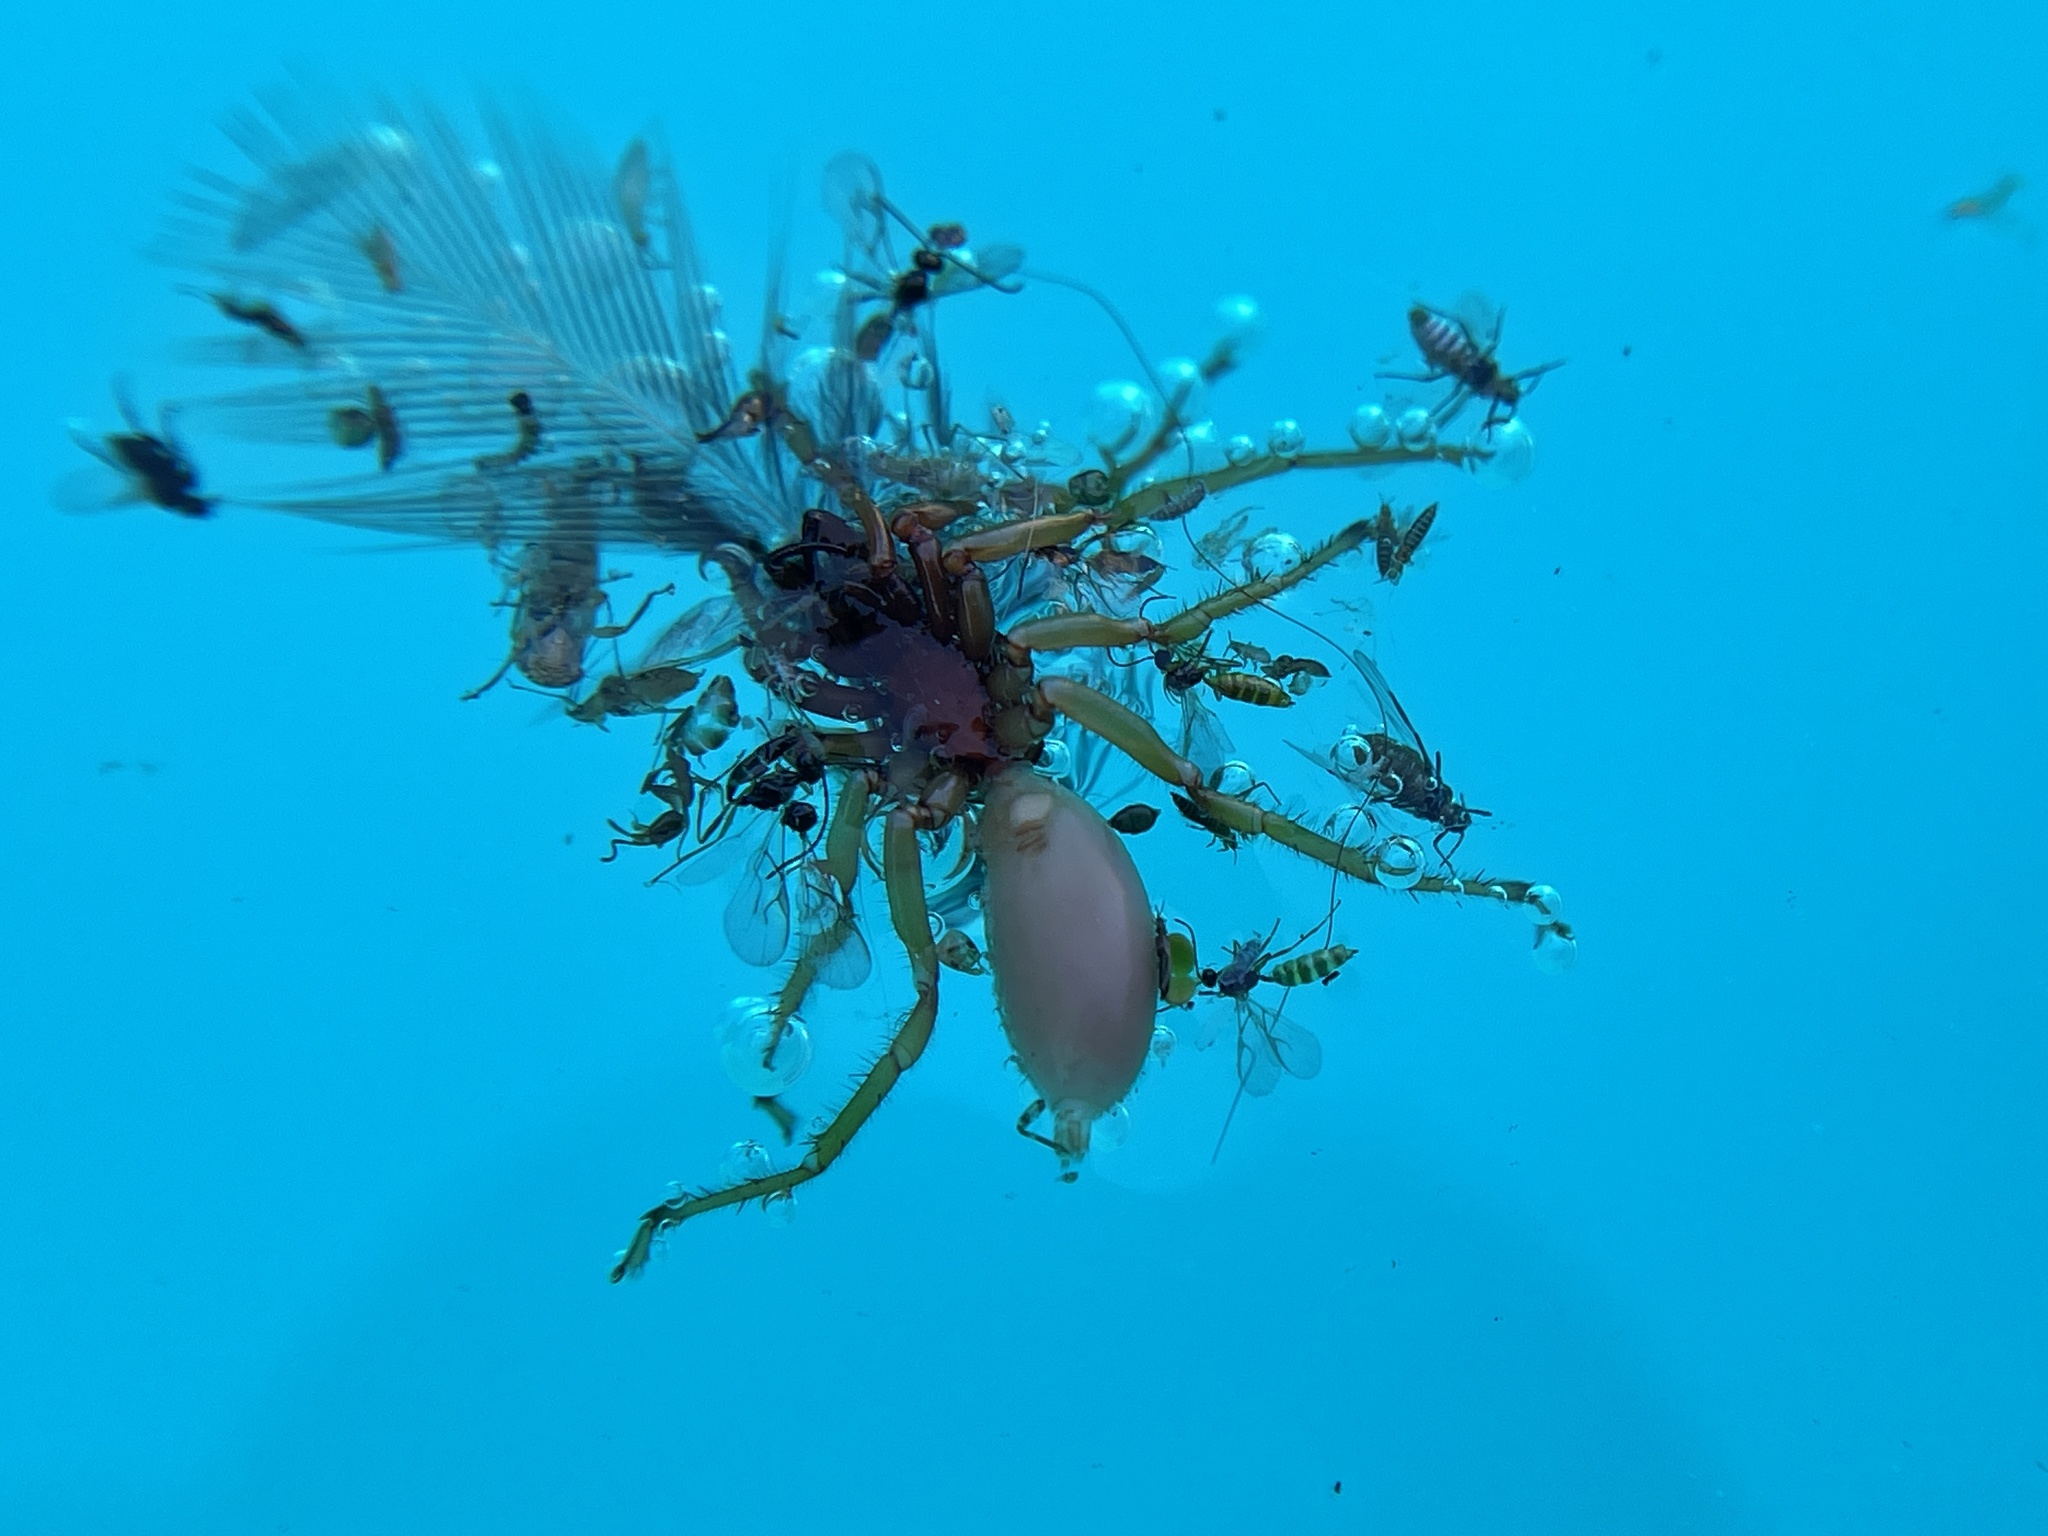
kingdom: Animalia
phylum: Arthropoda
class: Arachnida
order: Araneae
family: Dysderidae
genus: Dysdera
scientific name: Dysdera crocata
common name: Woodlouse spider
